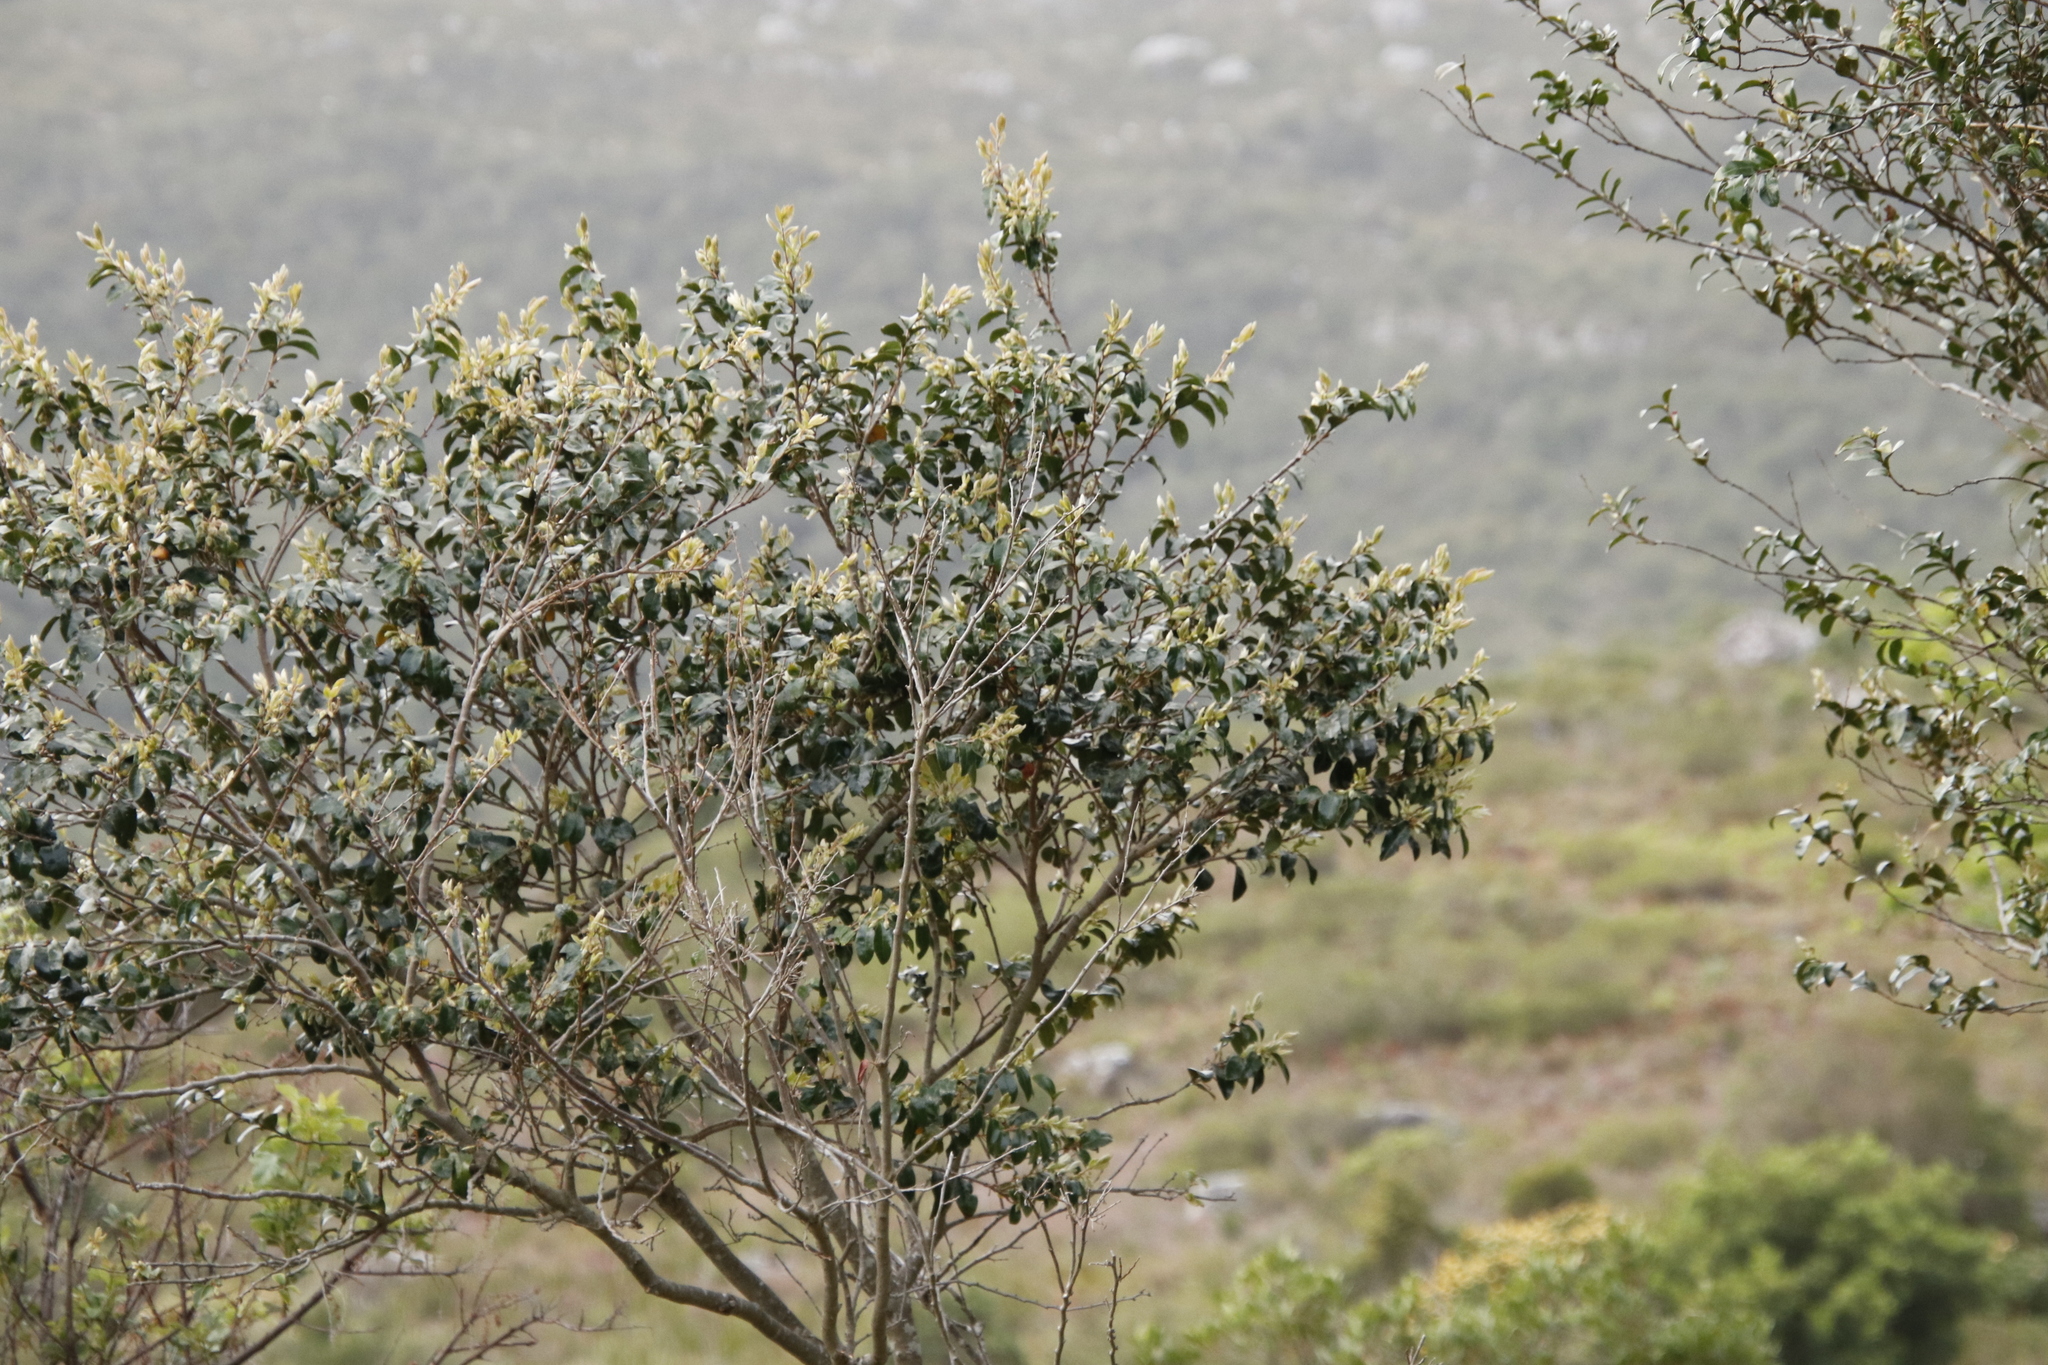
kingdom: Plantae
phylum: Tracheophyta
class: Magnoliopsida
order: Ericales
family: Ebenaceae
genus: Diospyros
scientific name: Diospyros whyteana
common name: Bladder-nut
